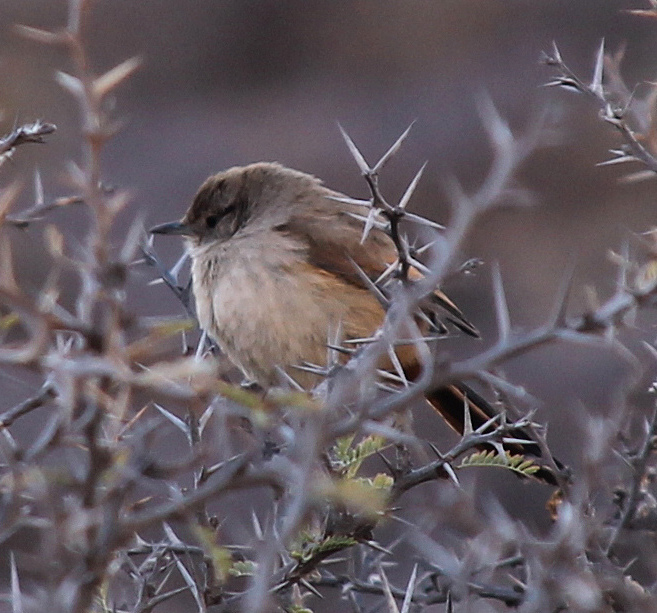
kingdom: Animalia
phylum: Chordata
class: Aves
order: Passeriformes
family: Furnariidae
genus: Asthenes
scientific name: Asthenes dorbignyi
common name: Rusty-vented canastero
